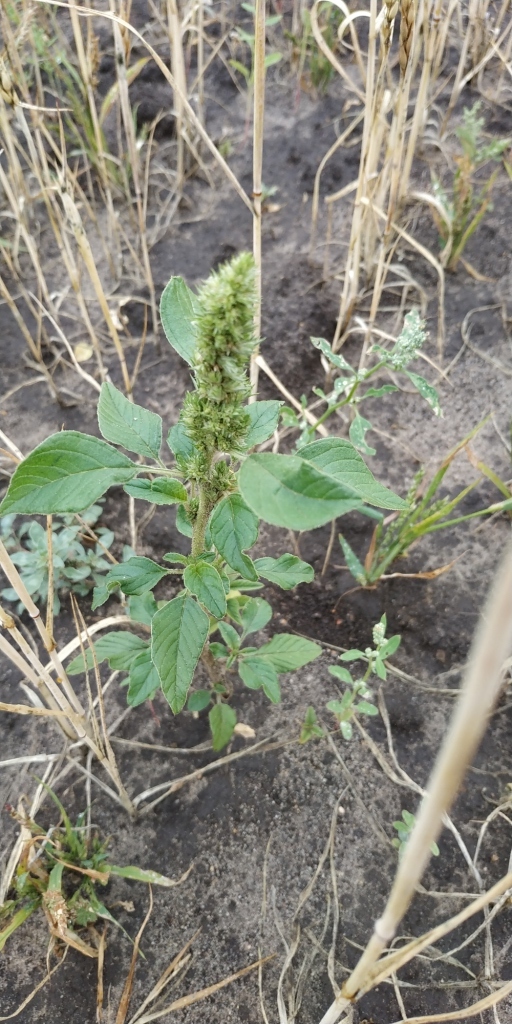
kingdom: Plantae
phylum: Tracheophyta
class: Magnoliopsida
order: Caryophyllales
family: Amaranthaceae
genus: Amaranthus
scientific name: Amaranthus retroflexus
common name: Redroot amaranth
